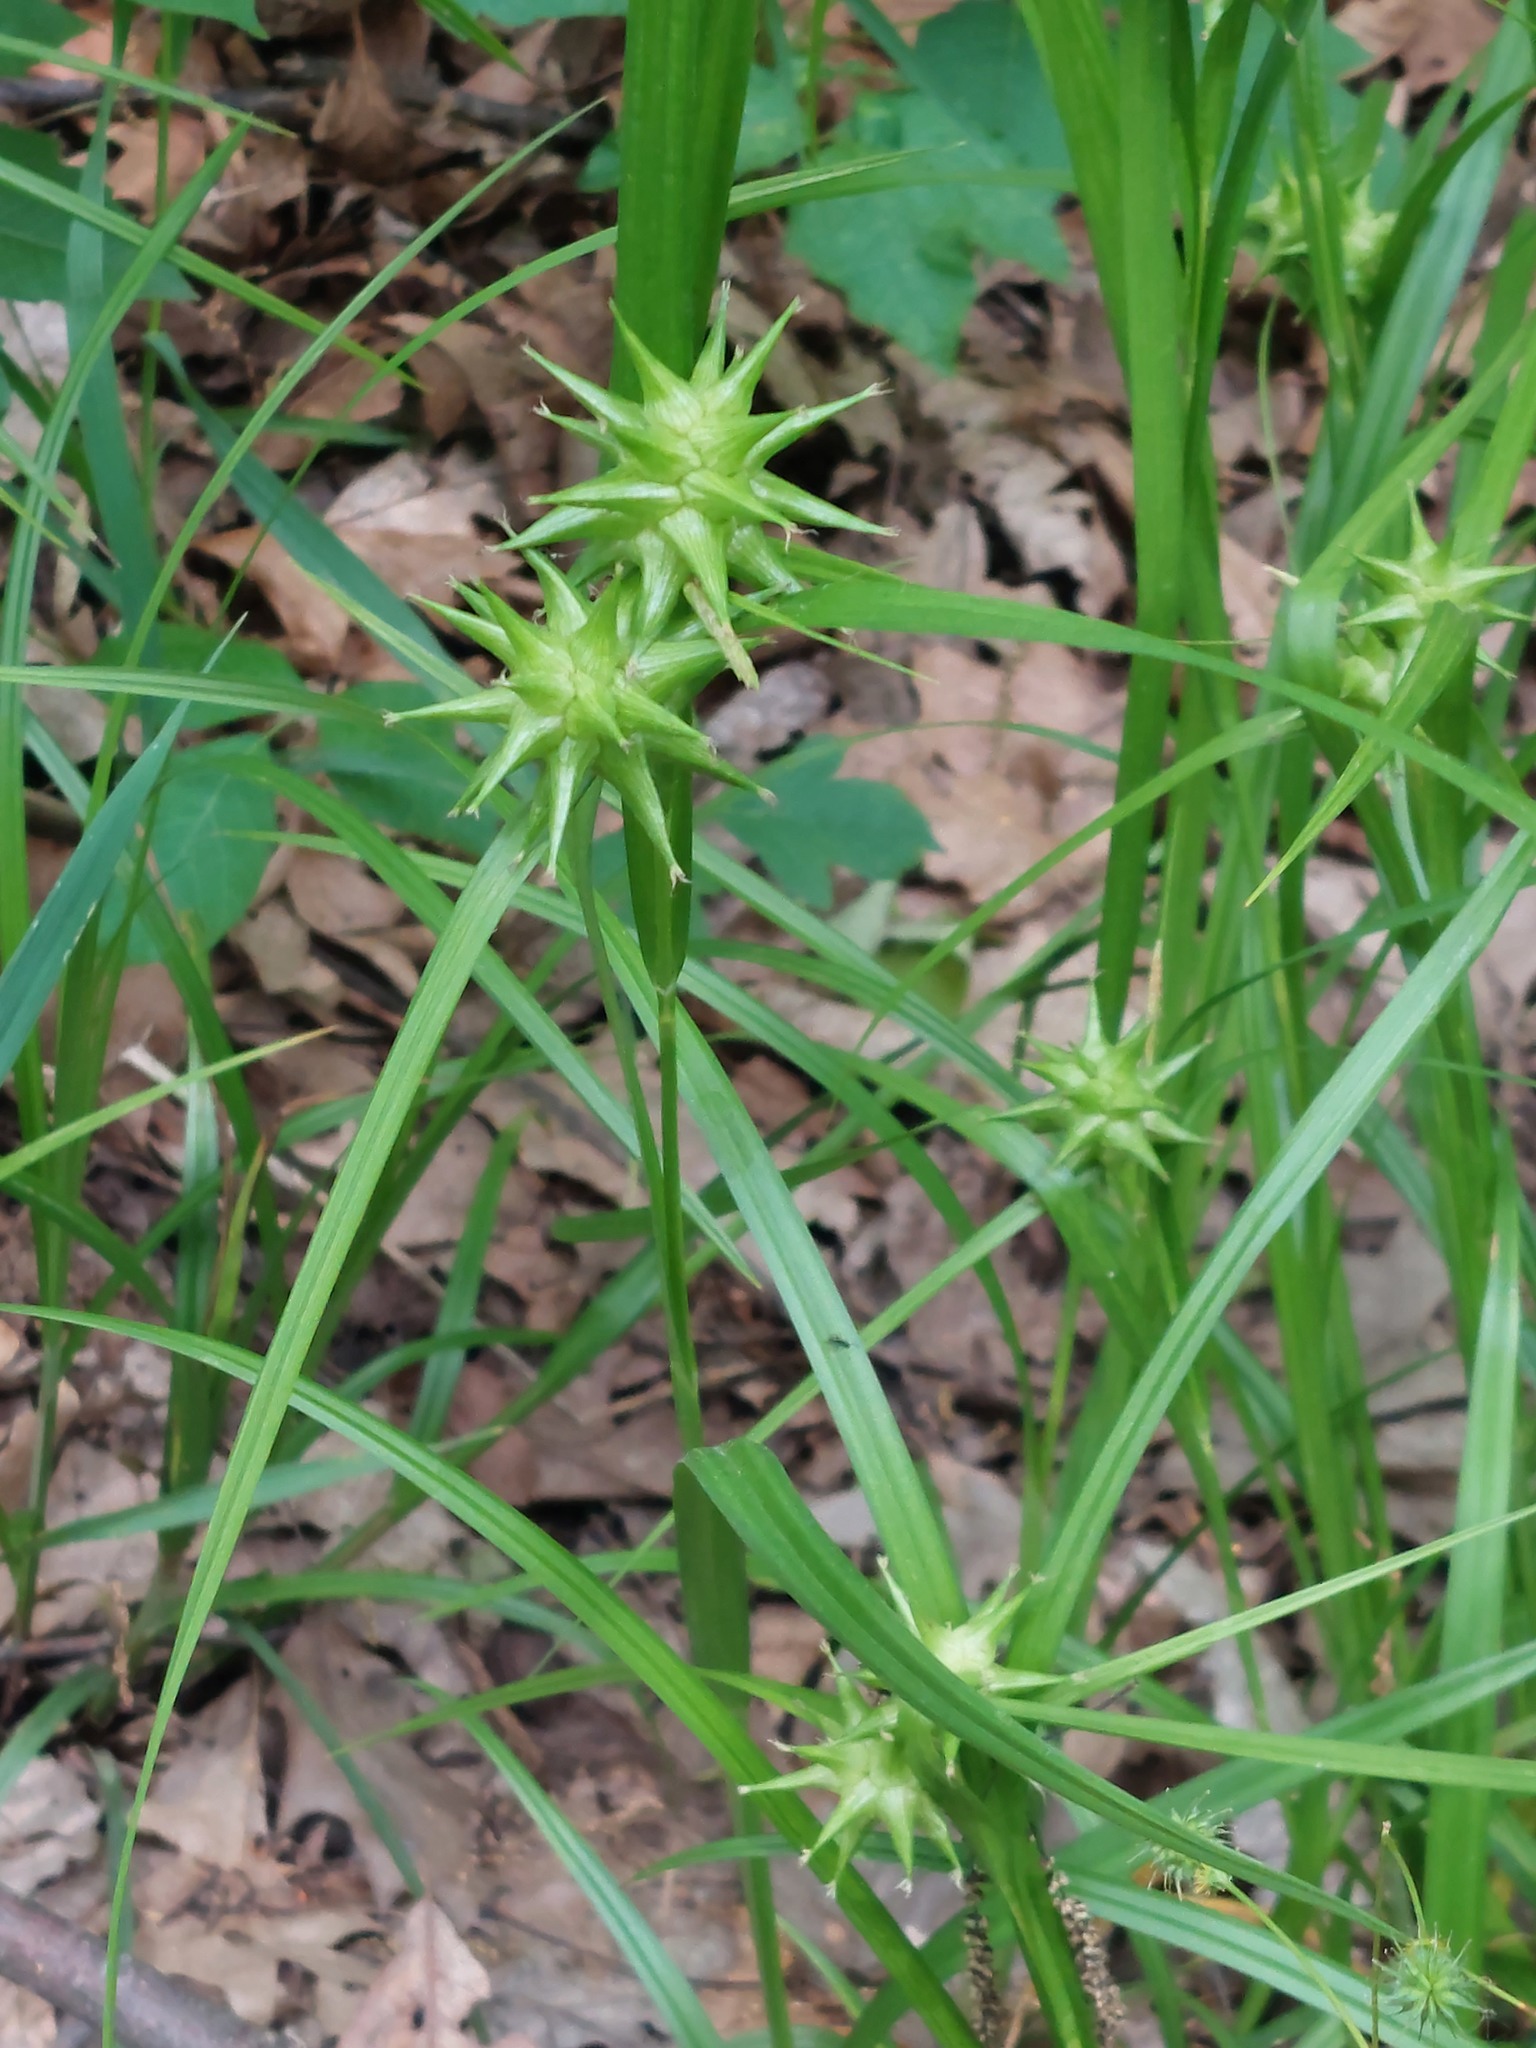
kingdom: Plantae
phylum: Tracheophyta
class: Liliopsida
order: Poales
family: Cyperaceae
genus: Carex
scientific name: Carex grayi
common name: Asa gray's sedge
